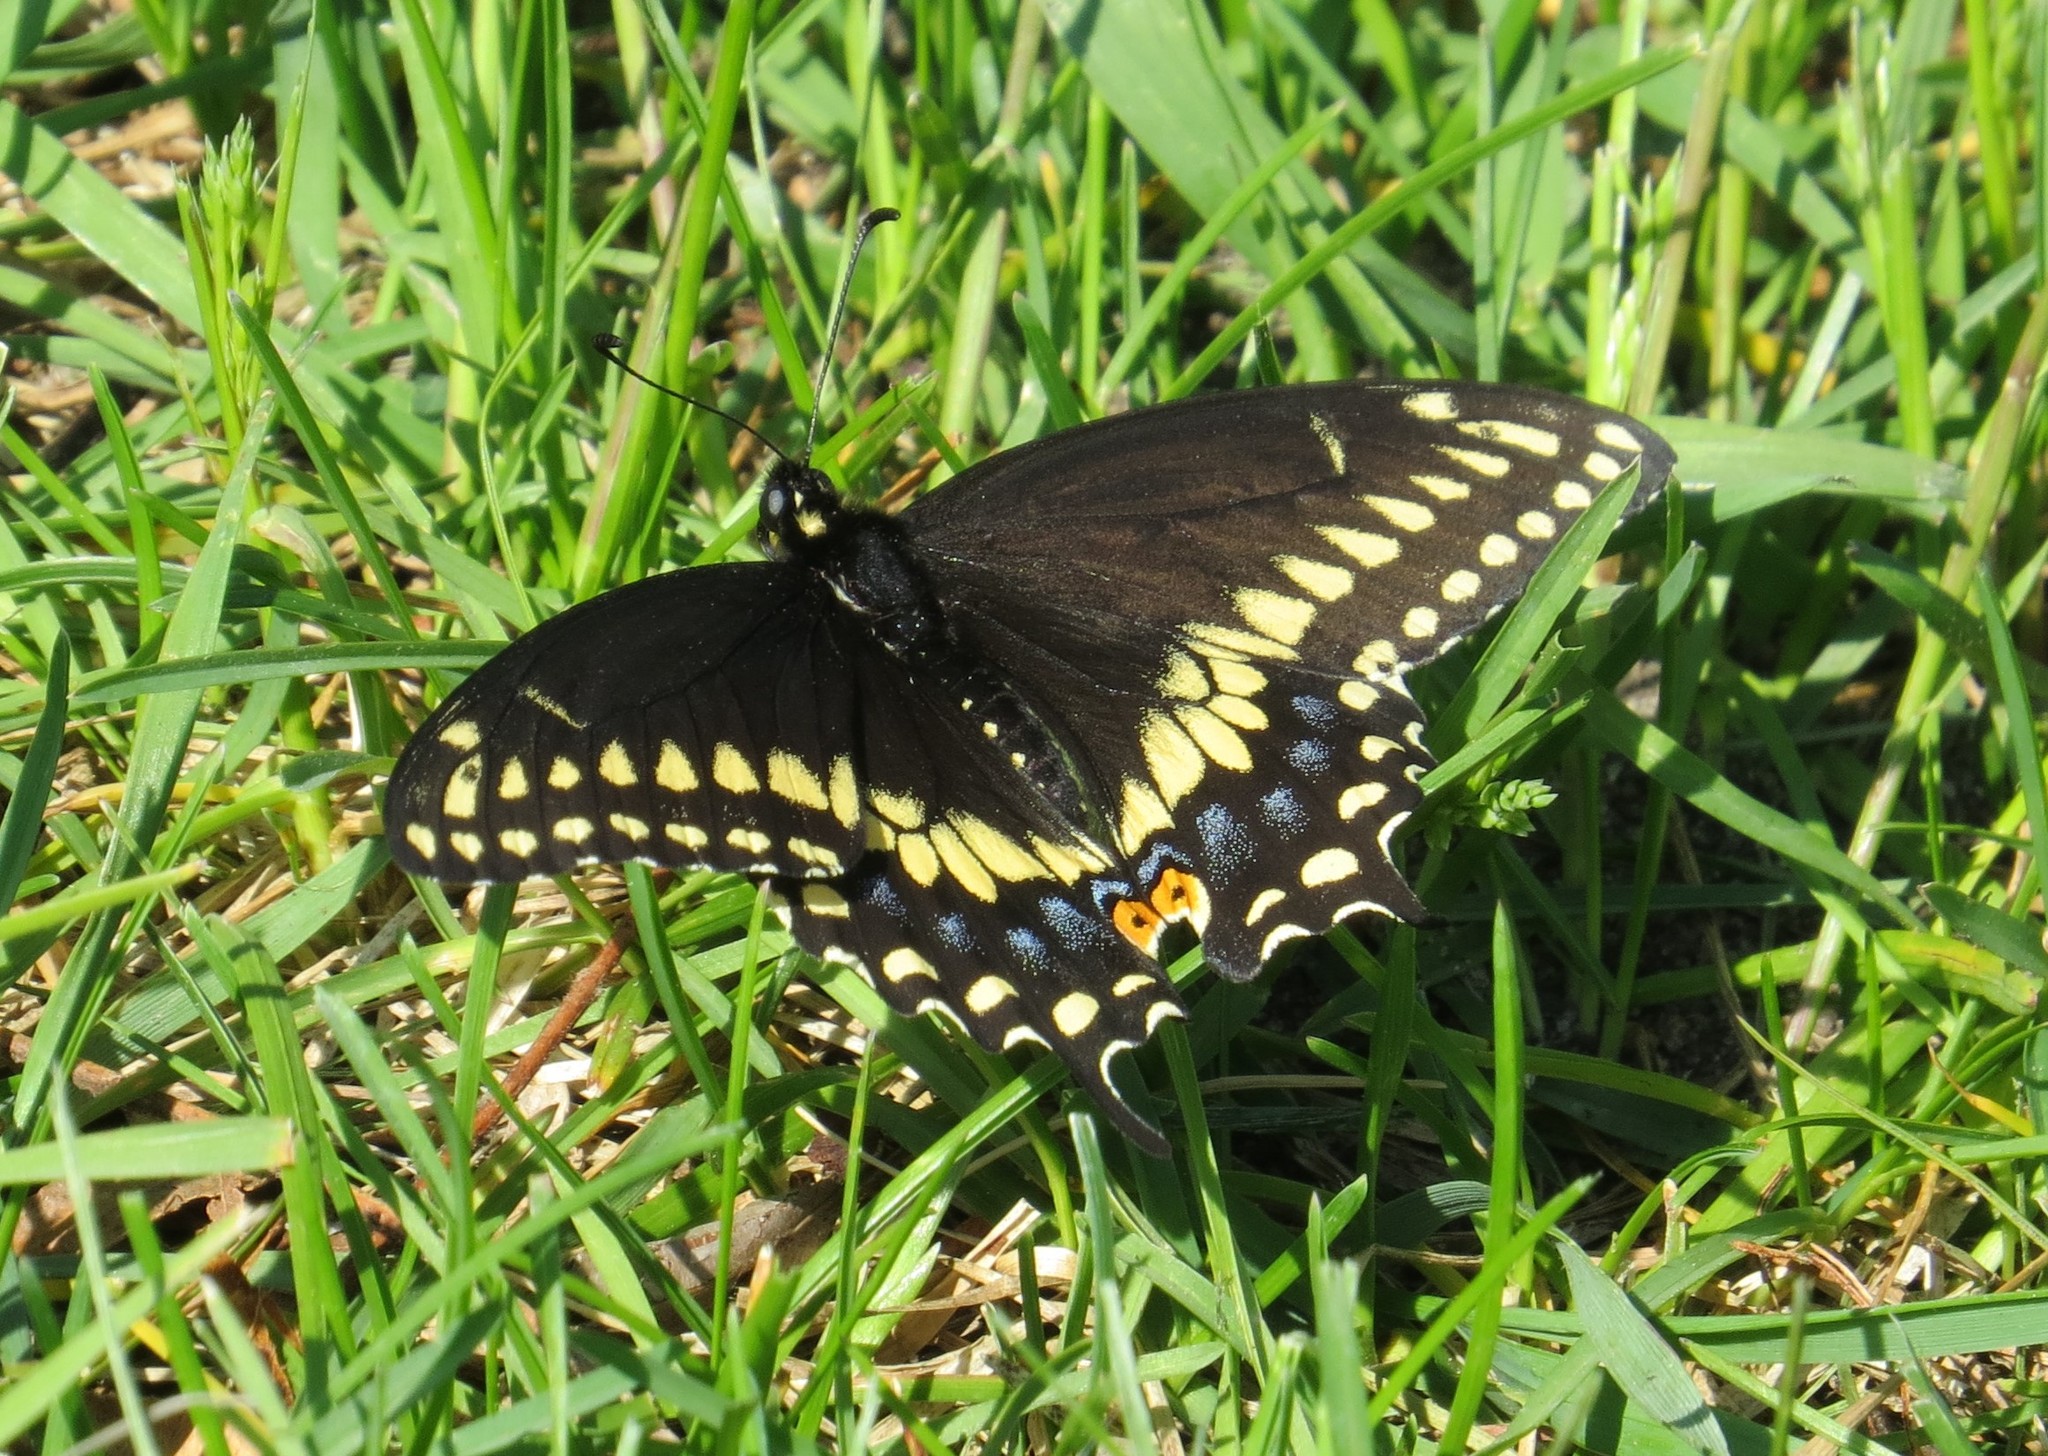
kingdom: Animalia
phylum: Arthropoda
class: Insecta
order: Lepidoptera
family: Papilionidae
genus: Papilio
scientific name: Papilio polyxenes
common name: Black swallowtail
